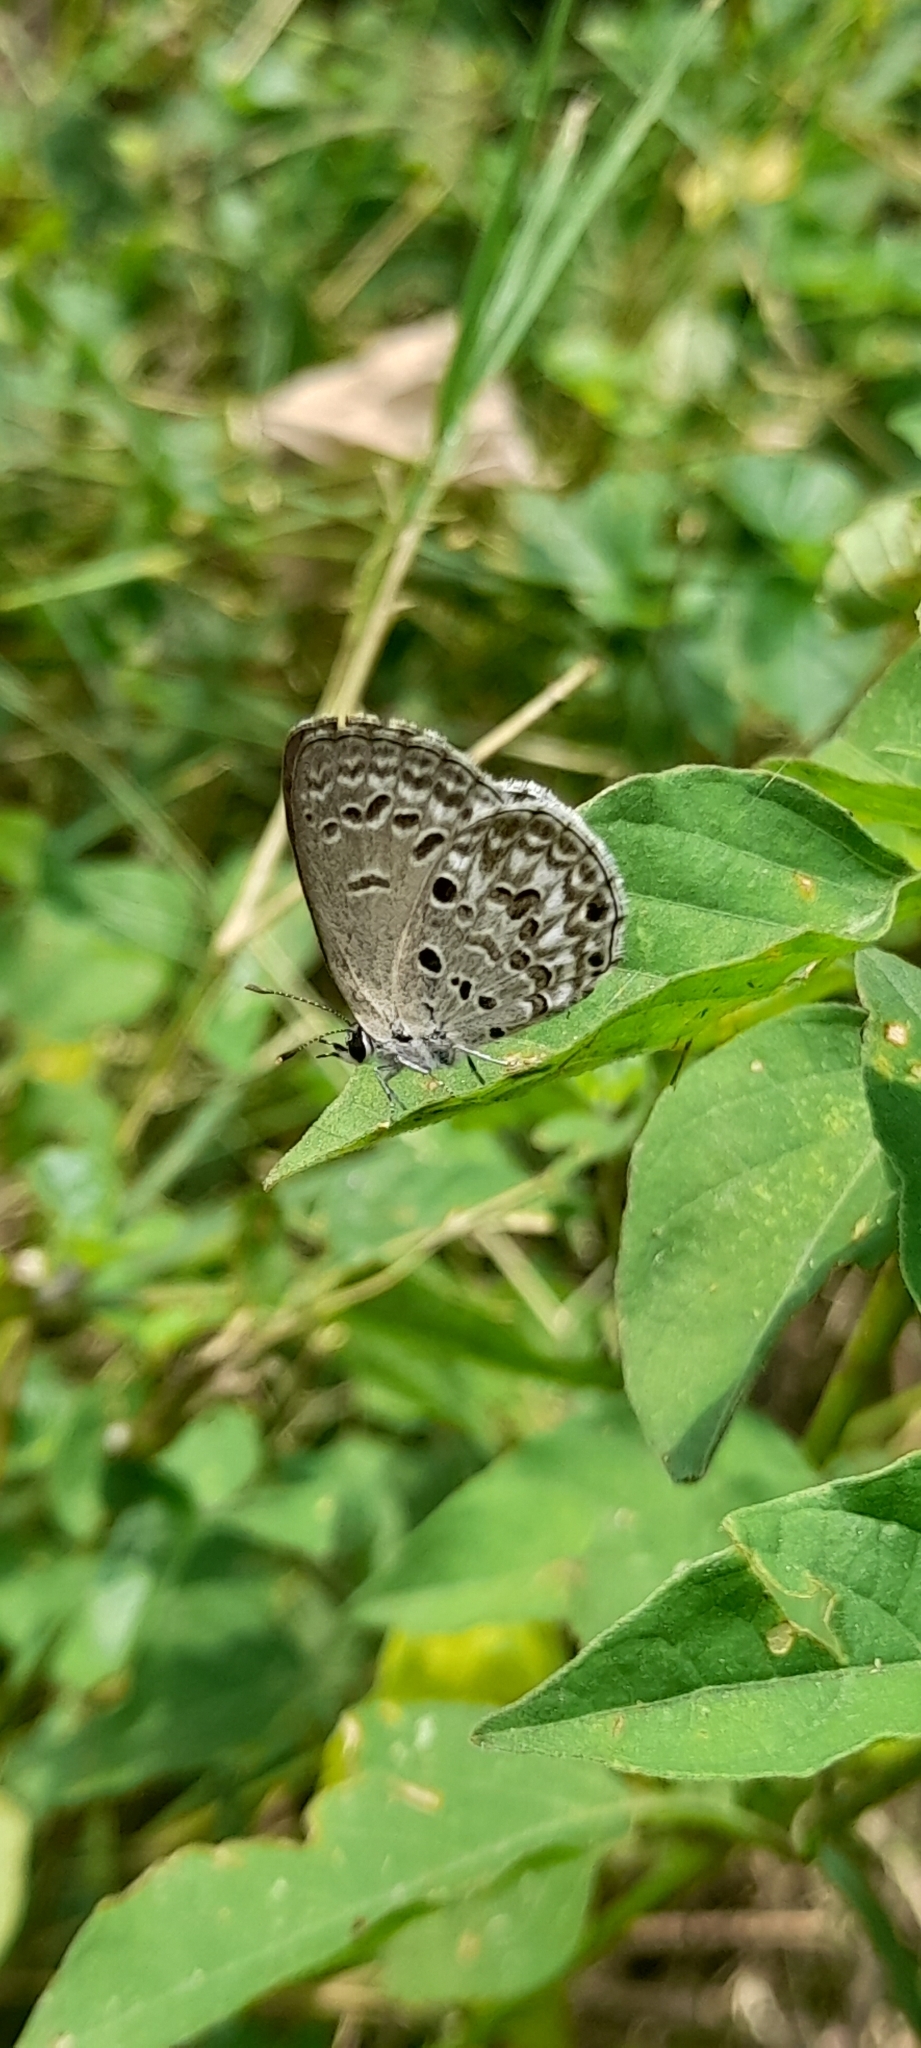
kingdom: Animalia
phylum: Arthropoda
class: Insecta
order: Lepidoptera
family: Lycaenidae
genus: Chilades
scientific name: Chilades laius
